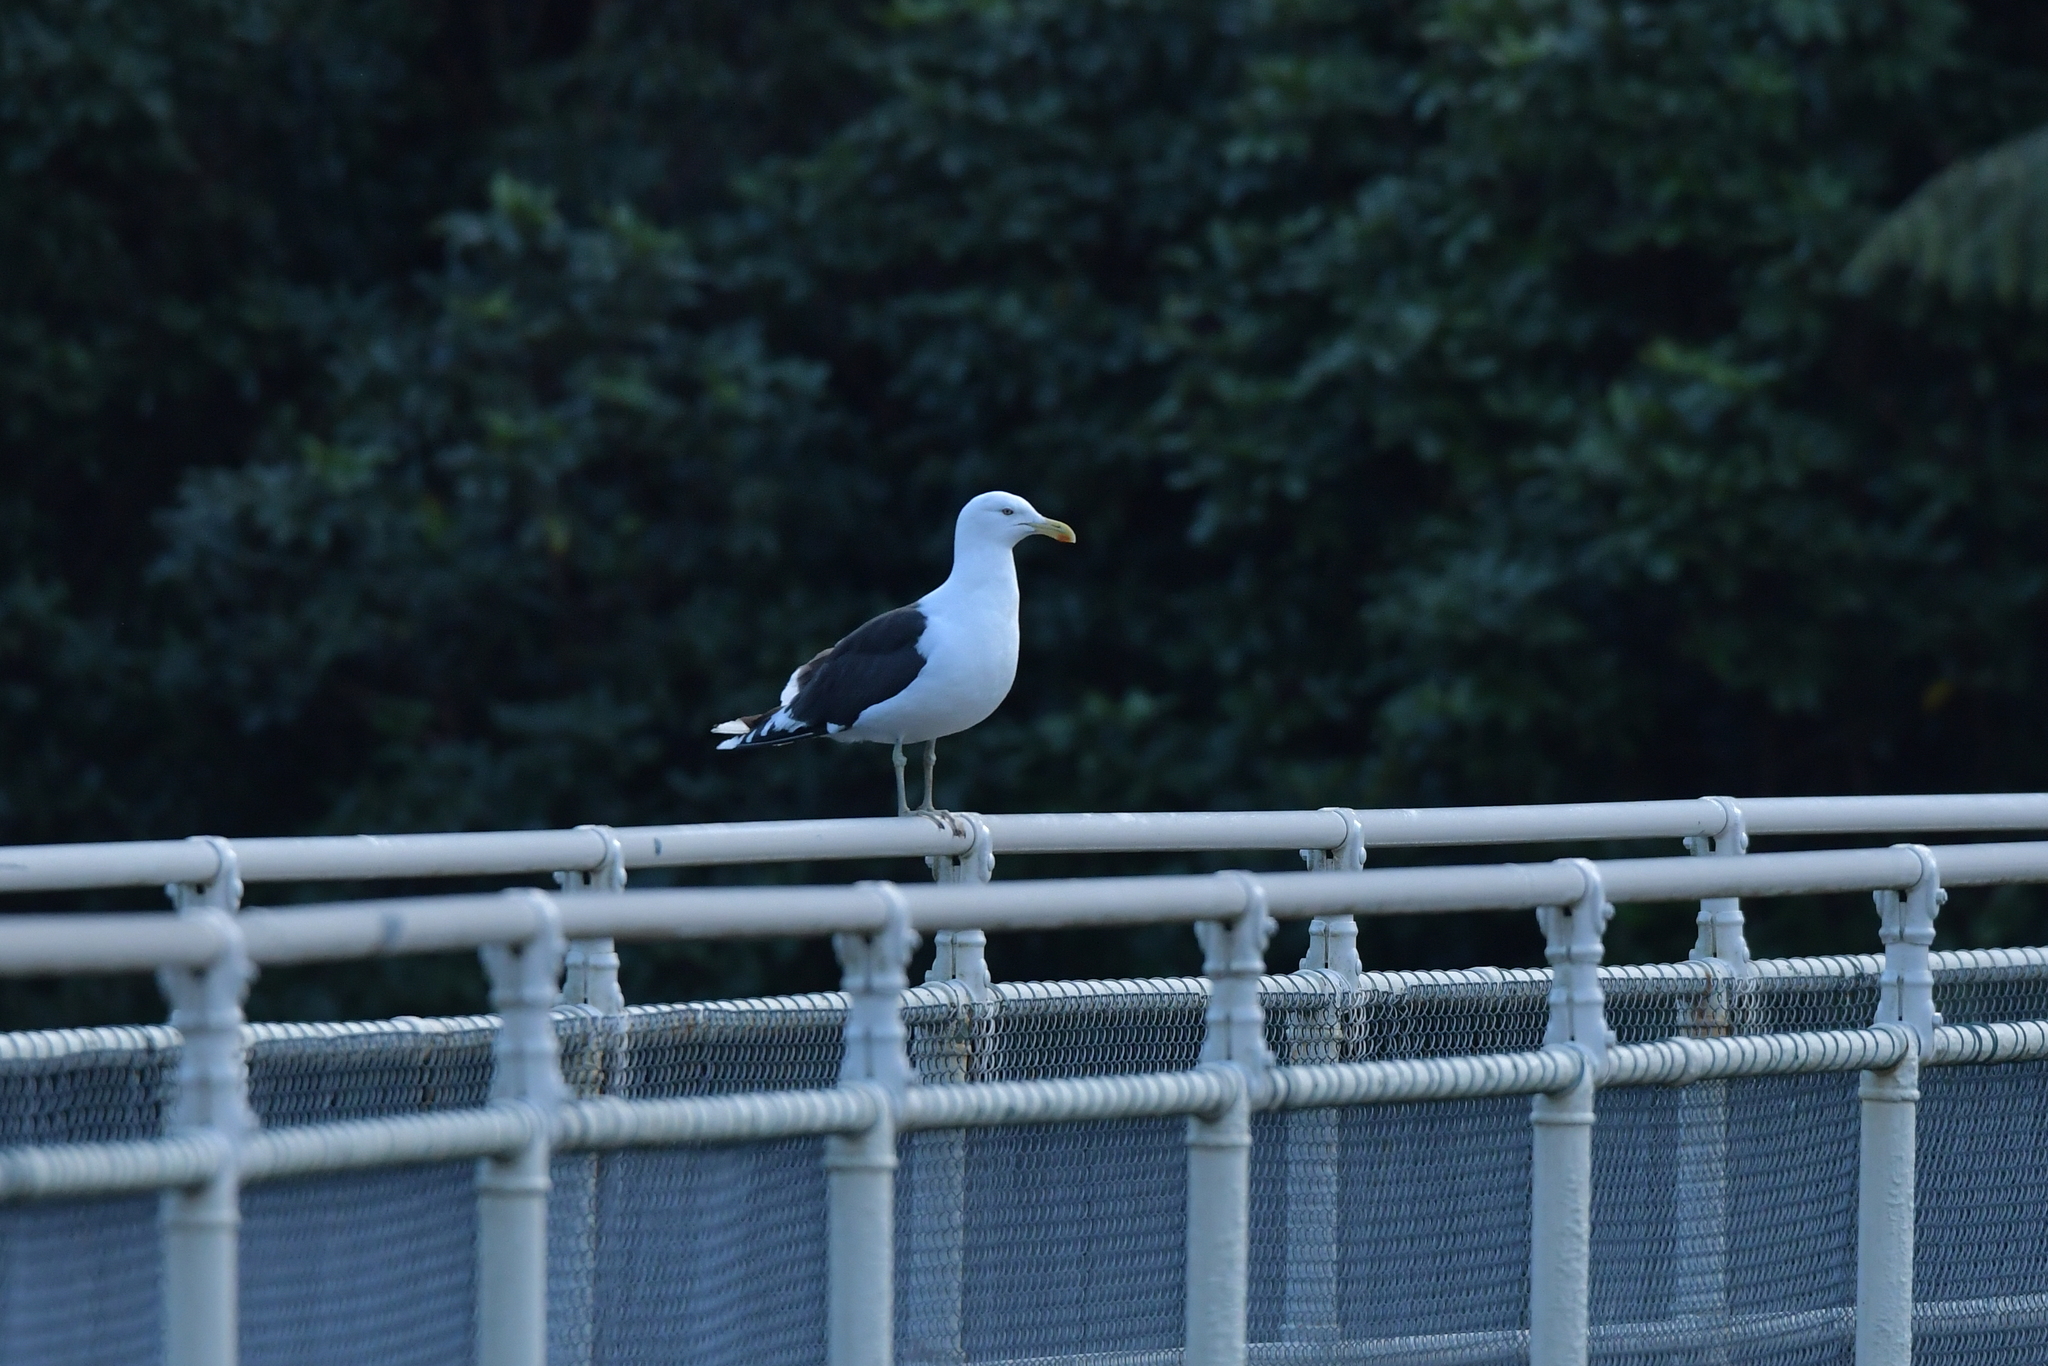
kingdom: Animalia
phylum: Chordata
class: Aves
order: Charadriiformes
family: Laridae
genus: Larus
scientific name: Larus dominicanus
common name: Kelp gull
